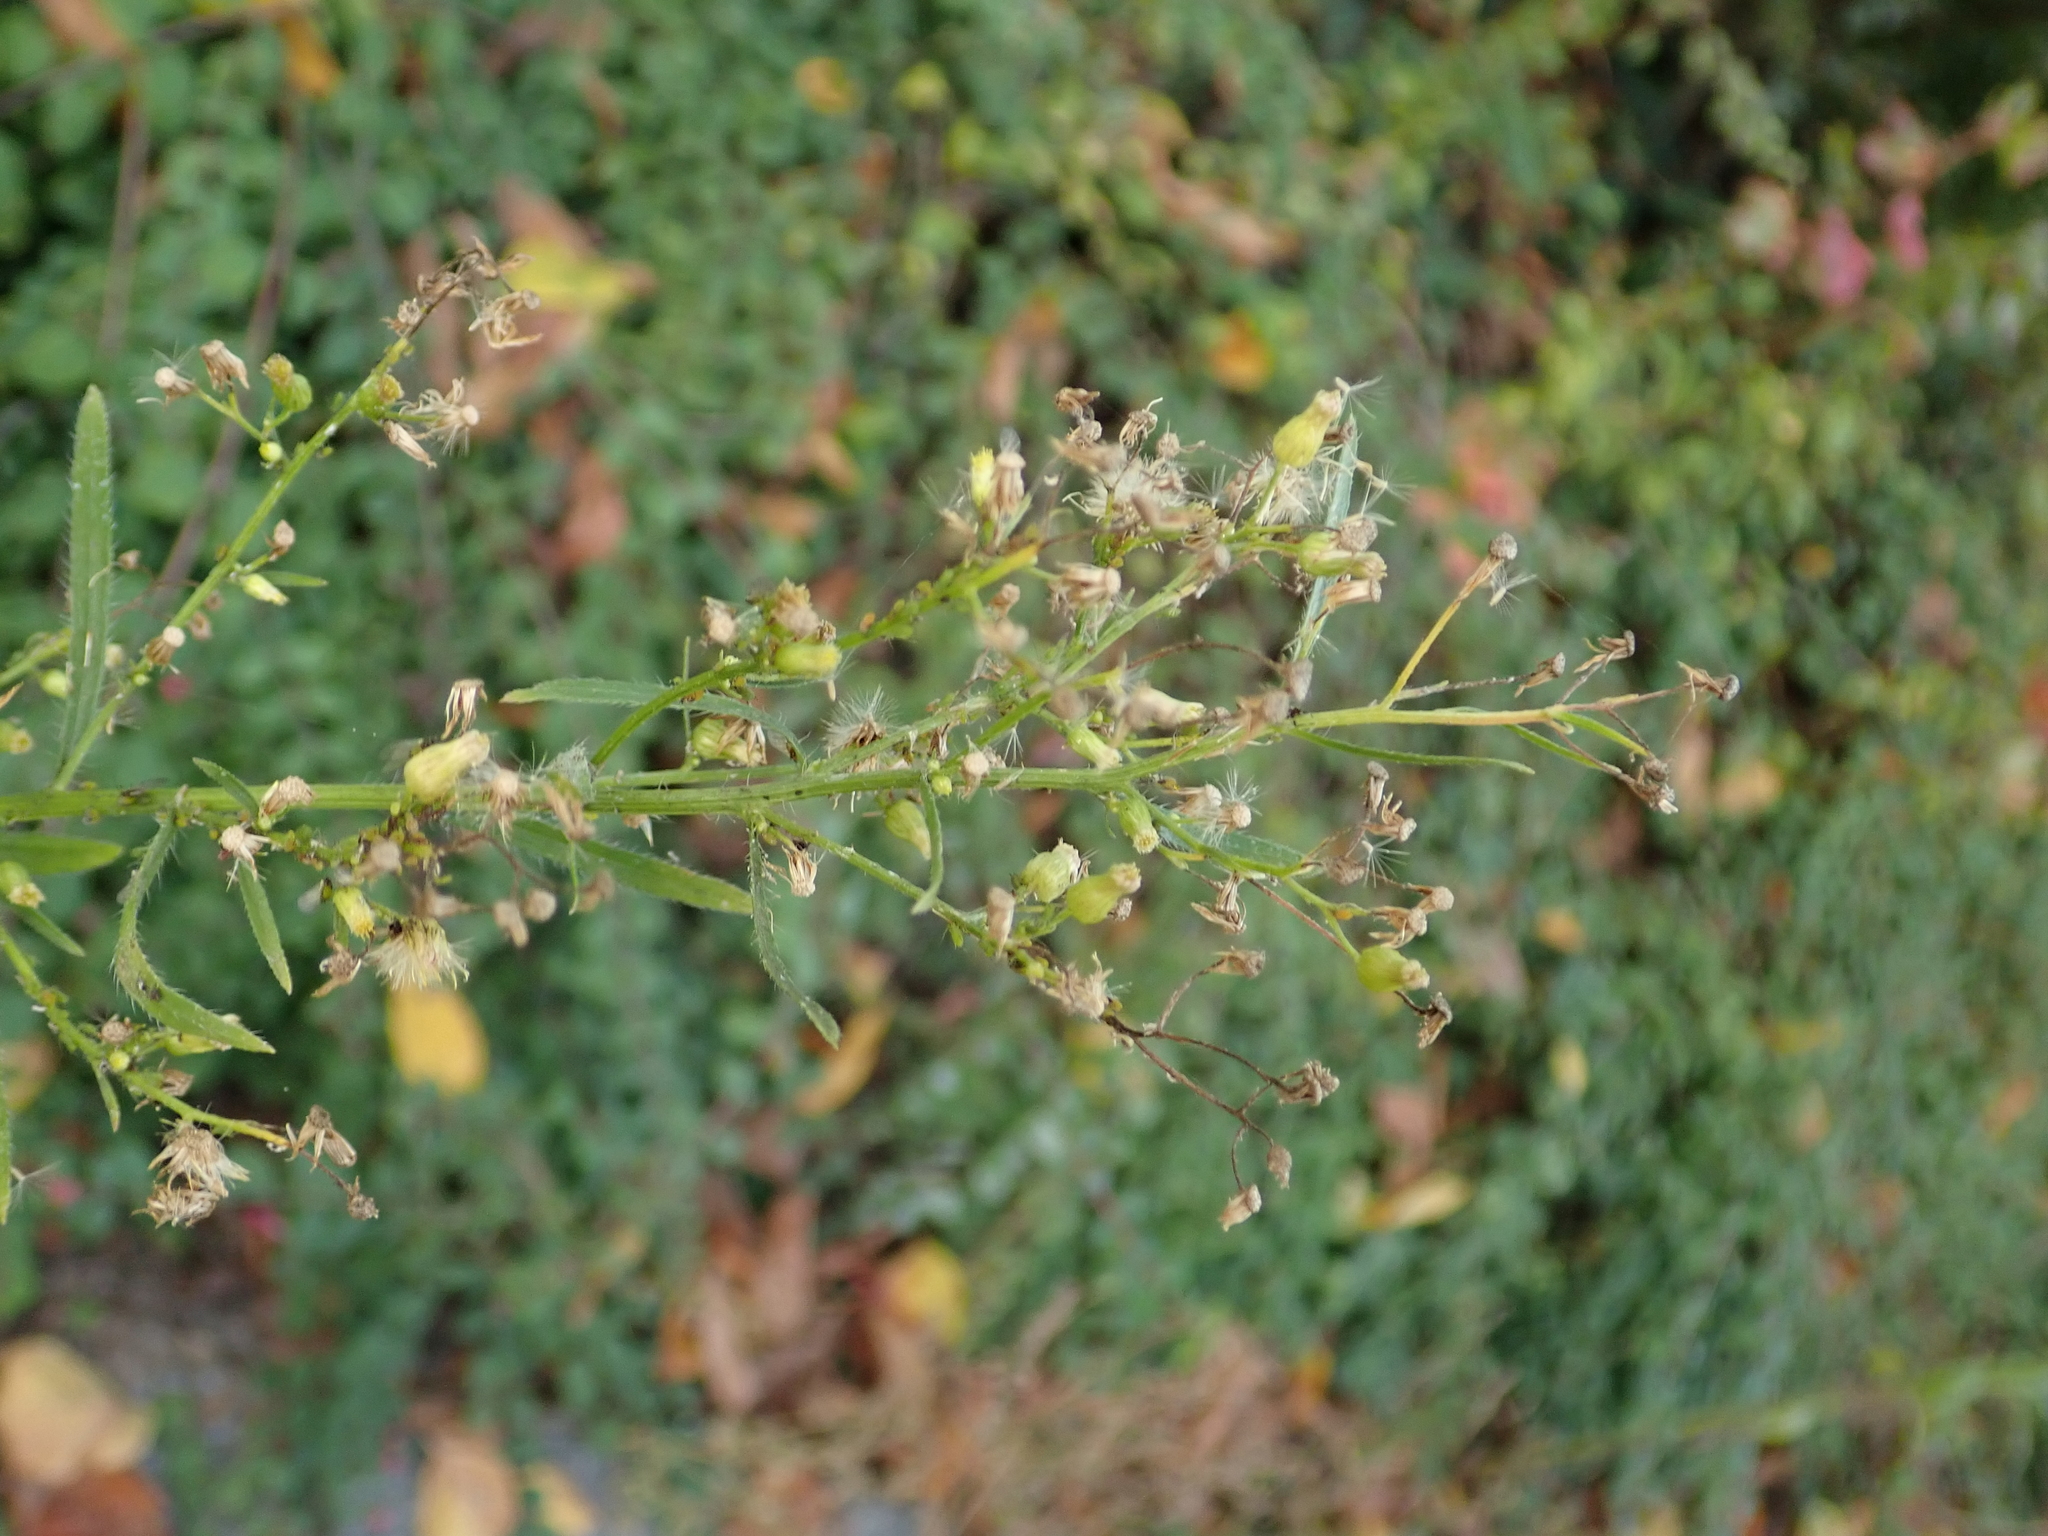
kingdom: Plantae
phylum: Tracheophyta
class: Magnoliopsida
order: Asterales
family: Asteraceae
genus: Erigeron
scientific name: Erigeron canadensis
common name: Canadian fleabane
